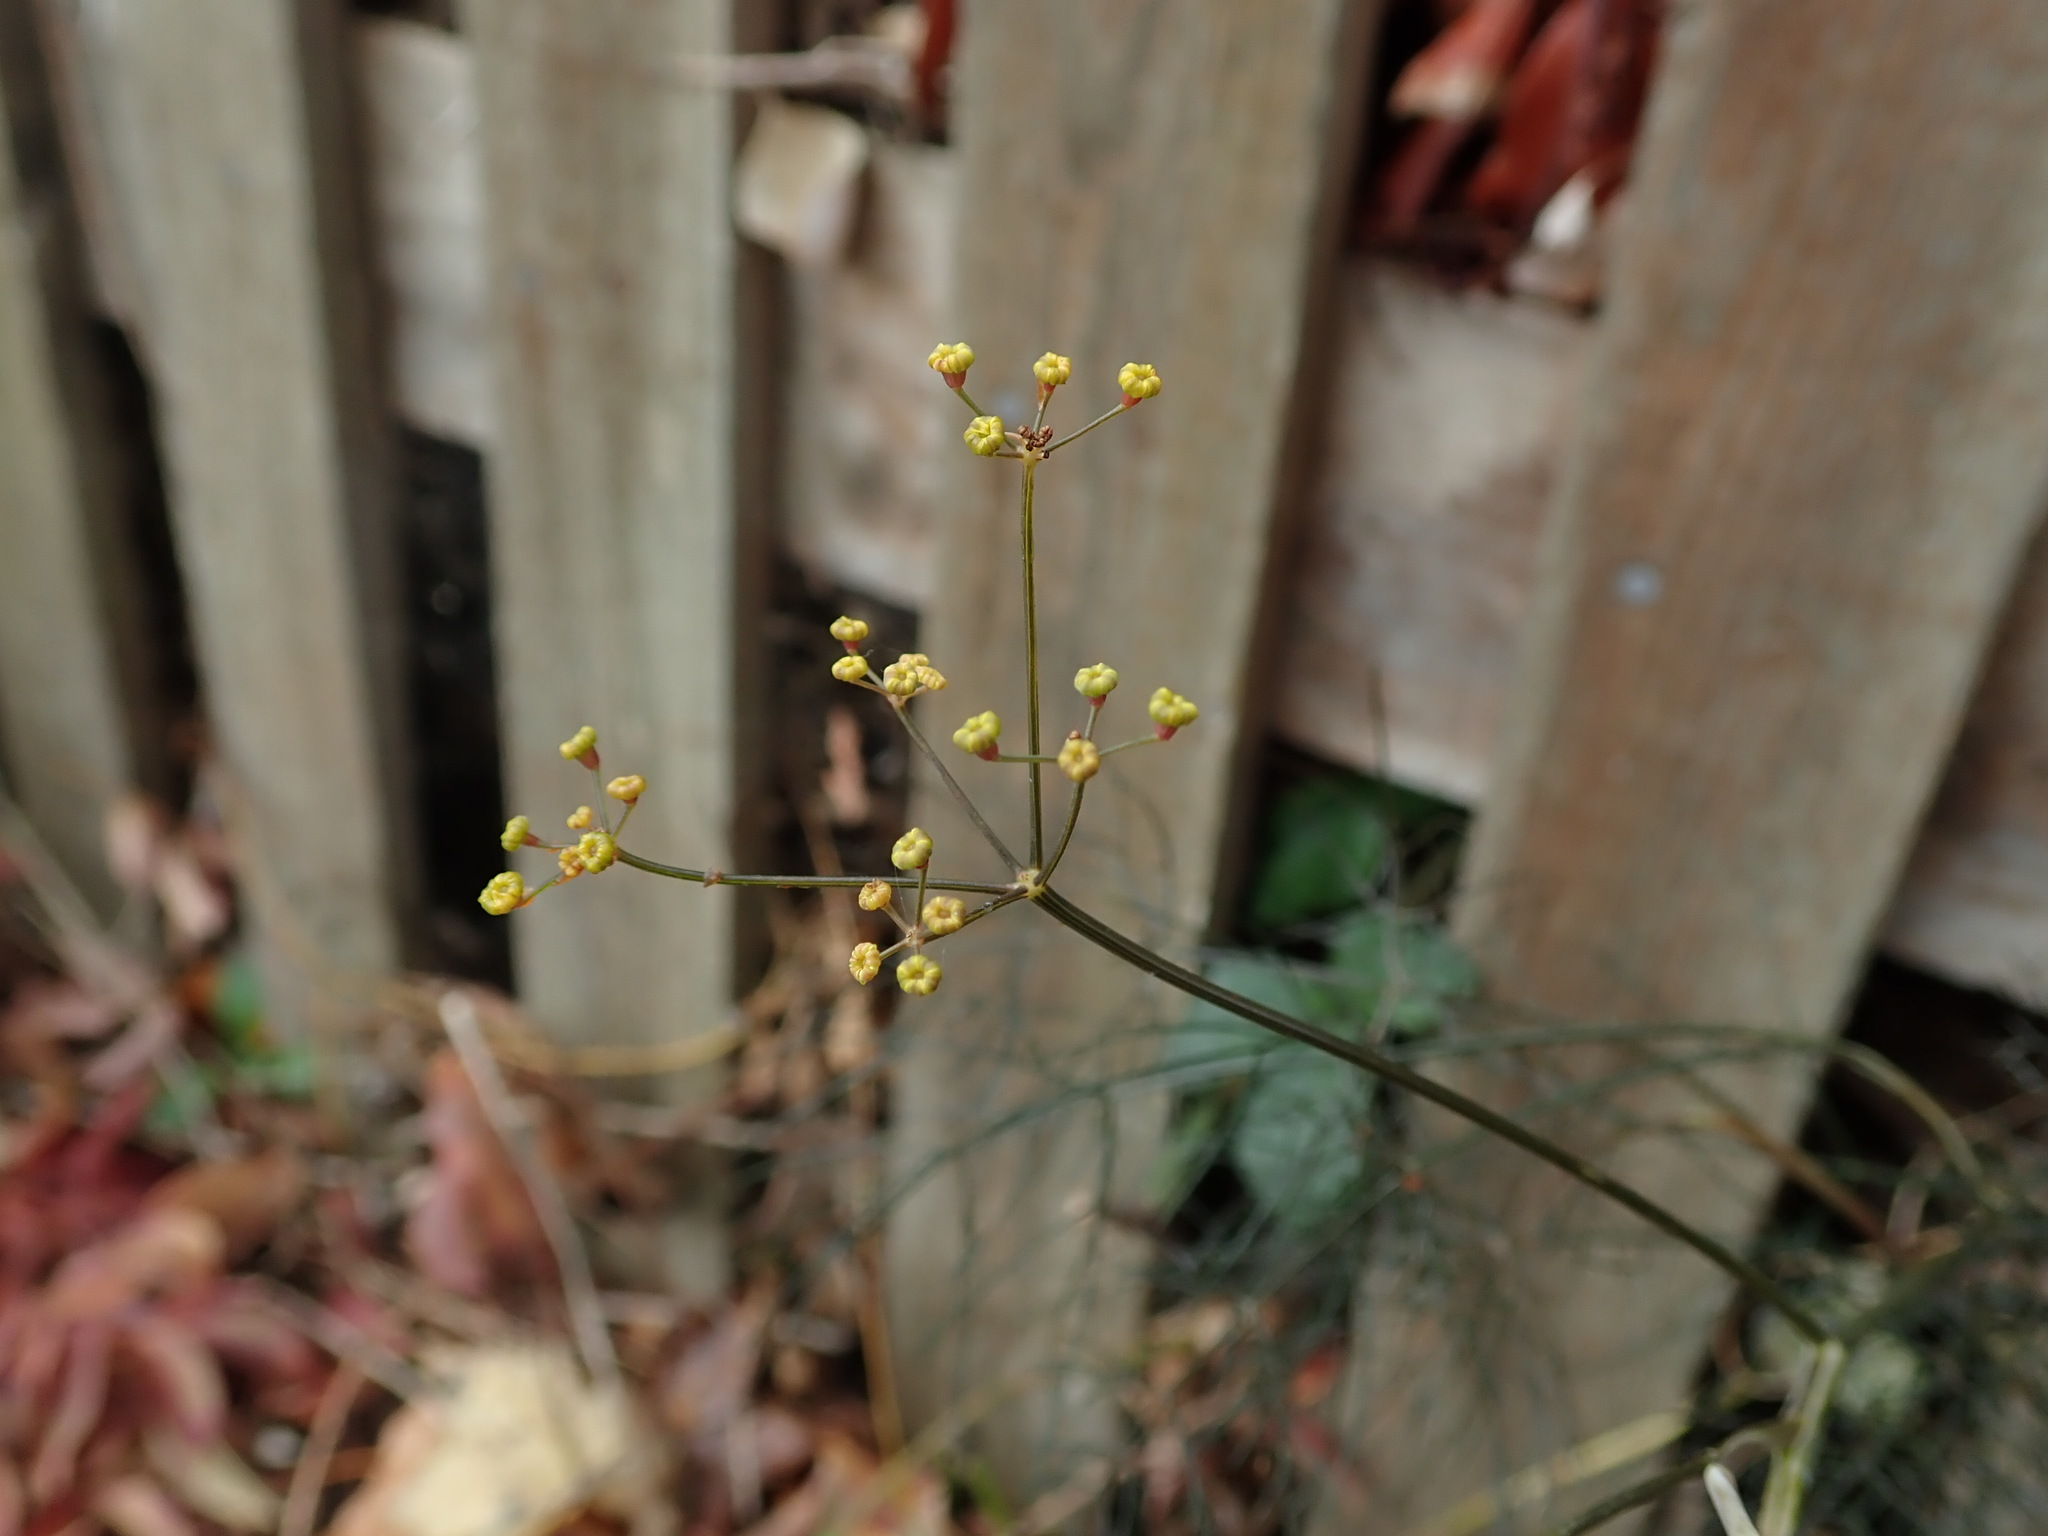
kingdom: Plantae
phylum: Tracheophyta
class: Magnoliopsida
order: Apiales
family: Apiaceae
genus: Foeniculum
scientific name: Foeniculum vulgare
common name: Fennel
